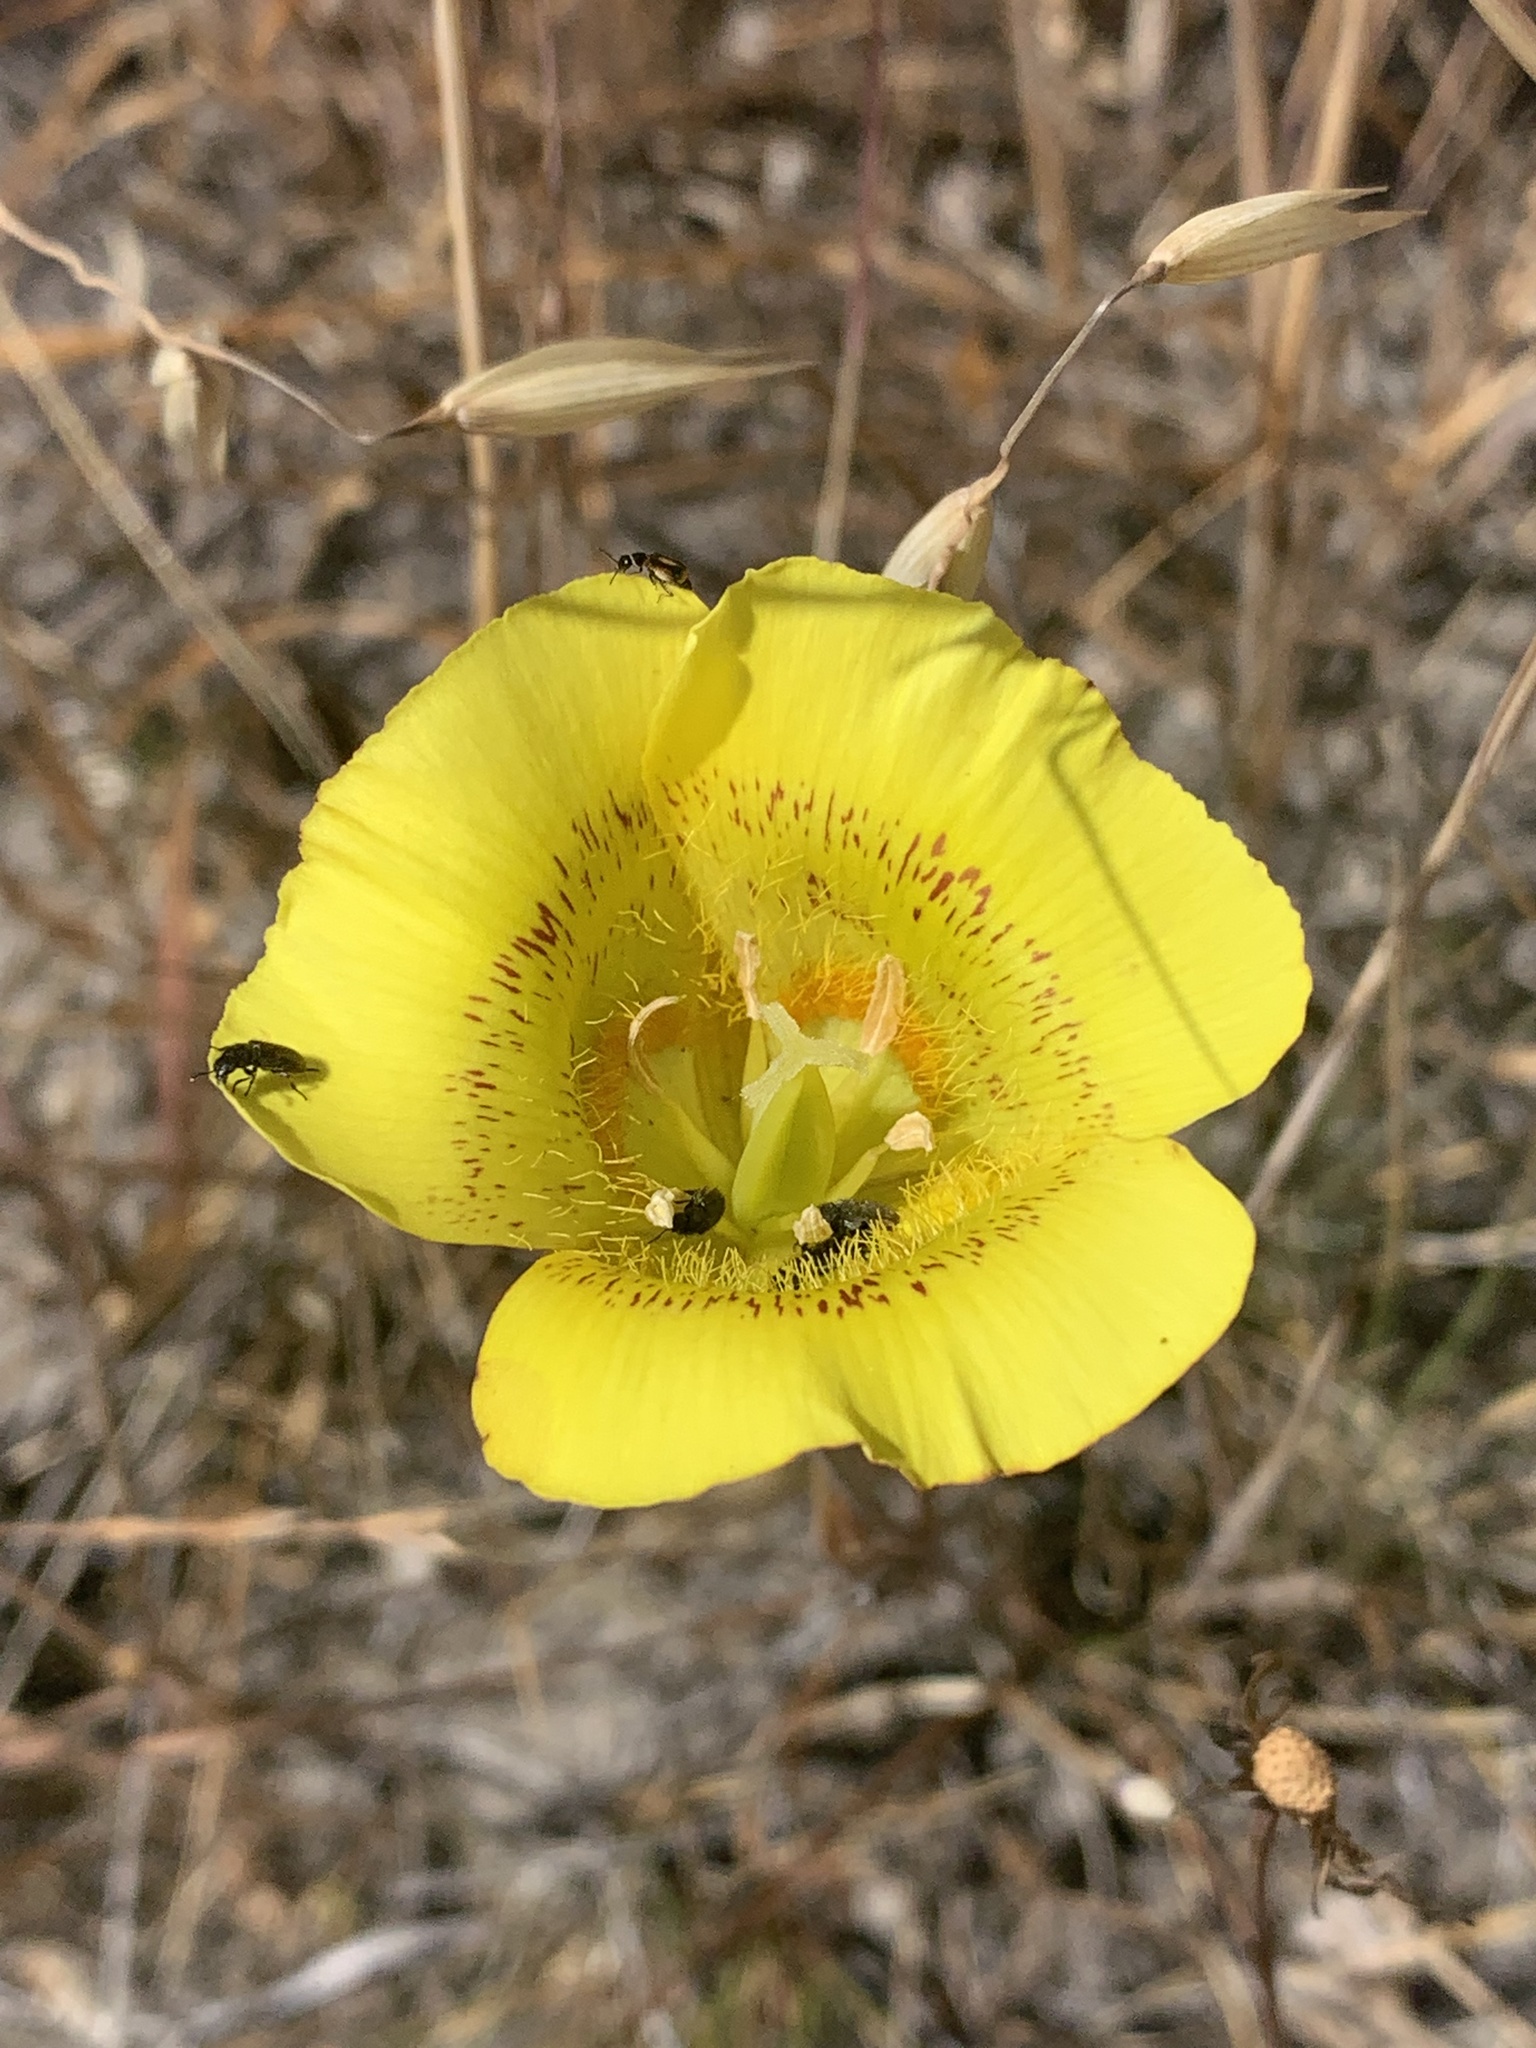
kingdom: Plantae
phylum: Tracheophyta
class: Liliopsida
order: Liliales
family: Liliaceae
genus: Calochortus
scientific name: Calochortus luteus
